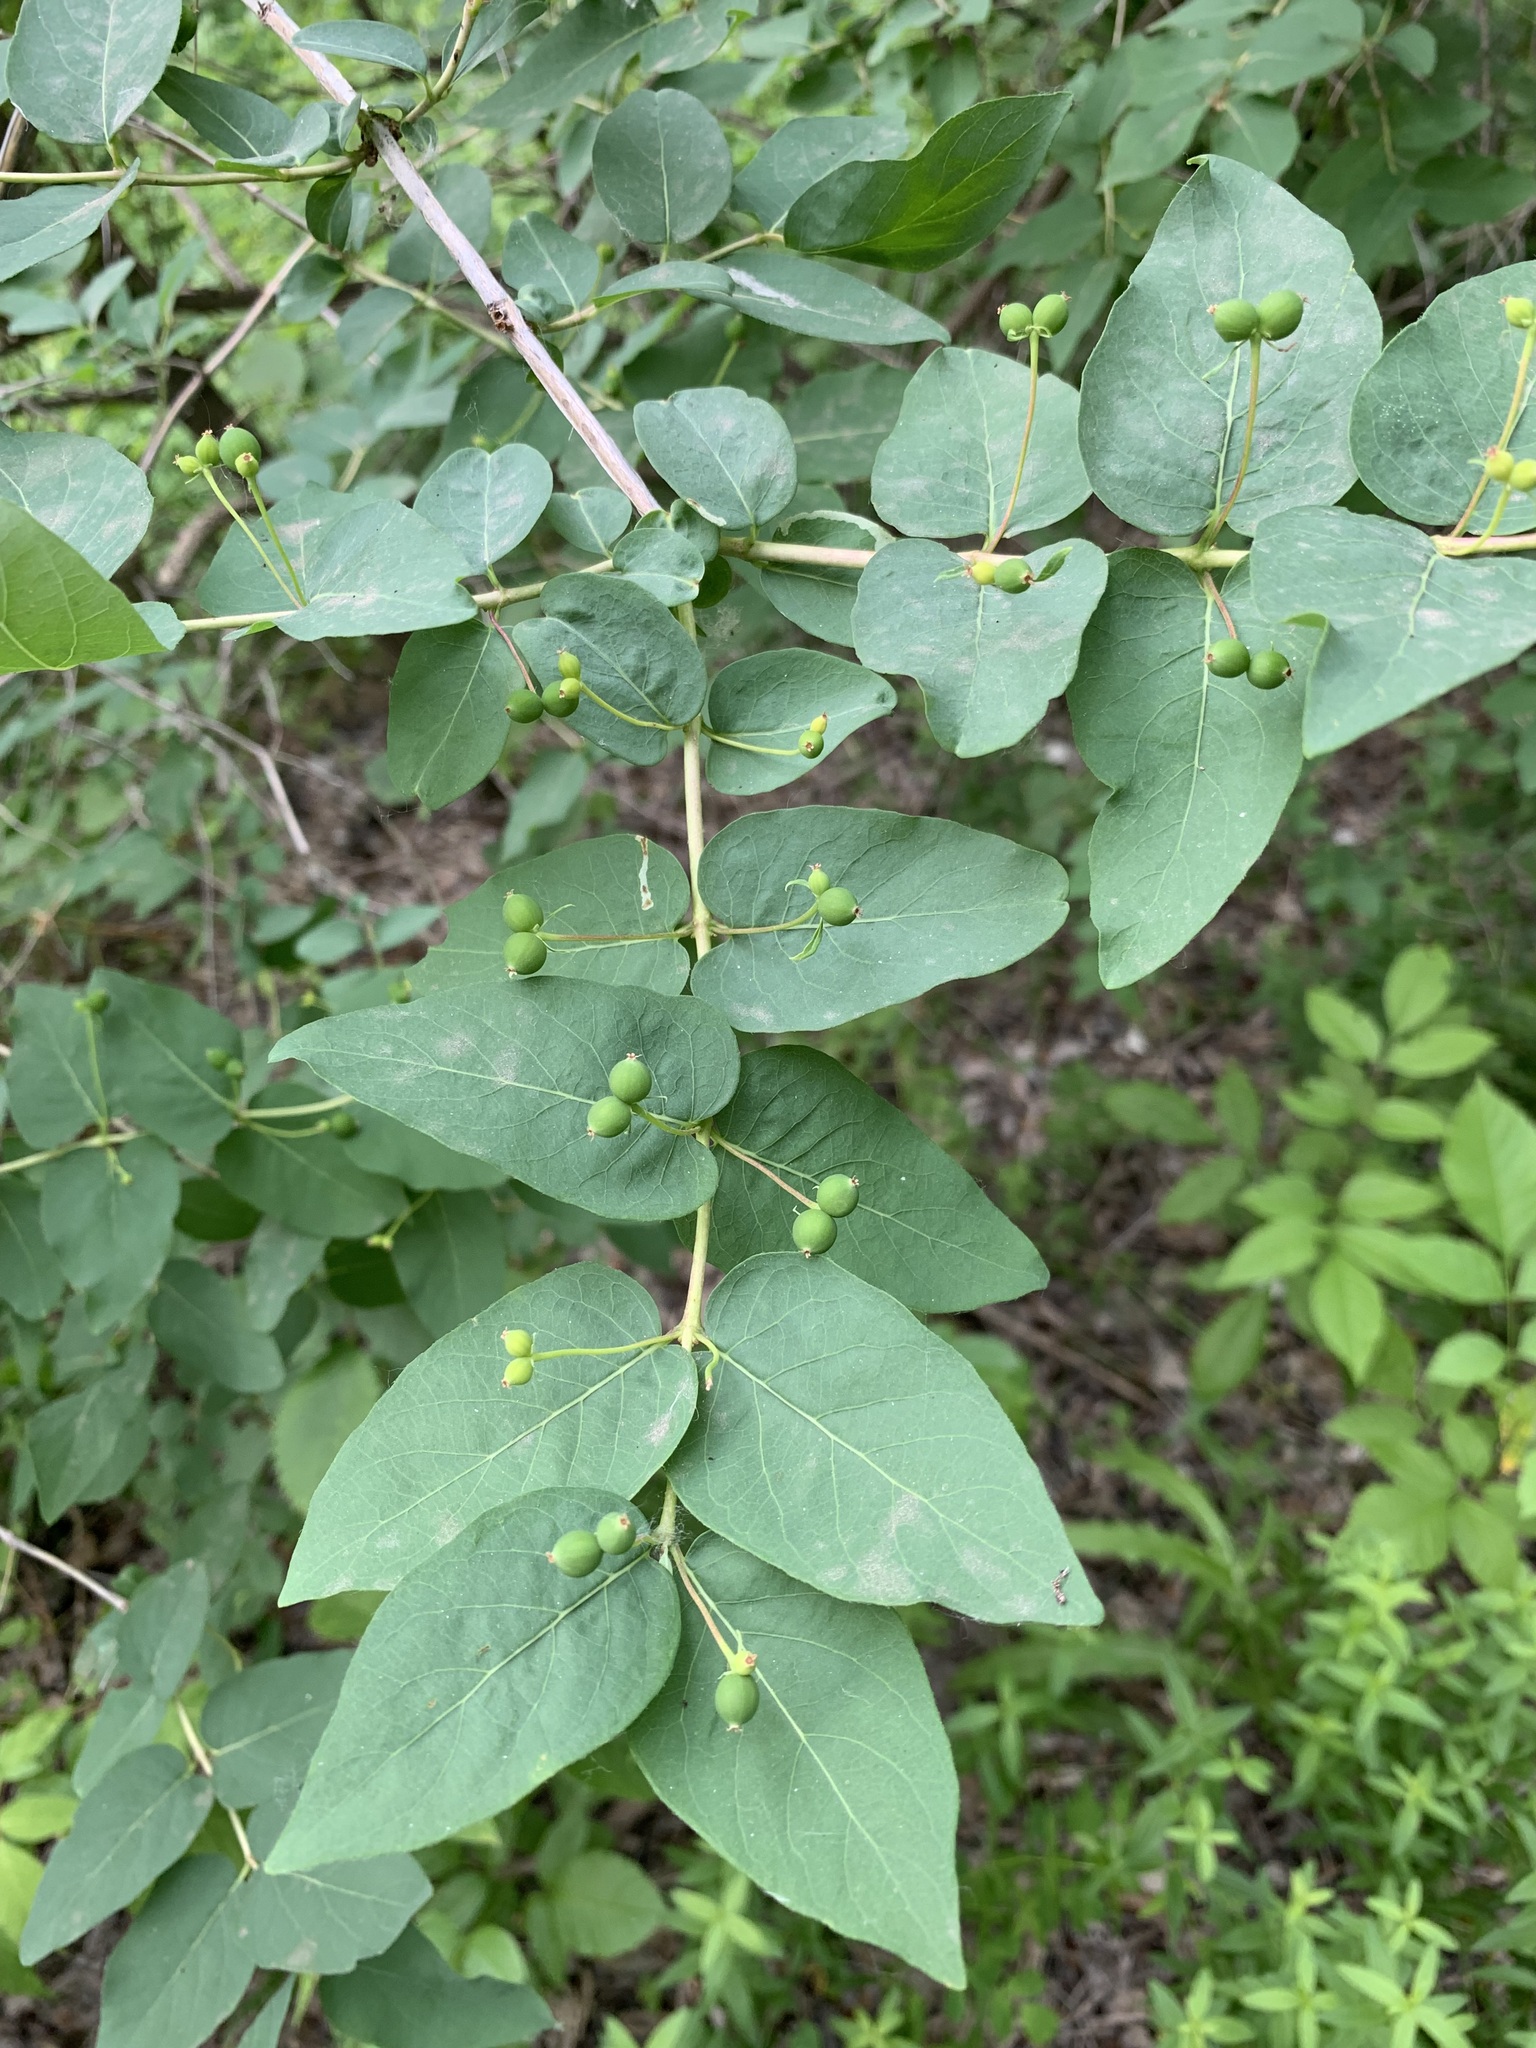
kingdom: Plantae
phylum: Tracheophyta
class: Magnoliopsida
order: Dipsacales
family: Caprifoliaceae
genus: Lonicera
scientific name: Lonicera tatarica
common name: Tatarian honeysuckle
